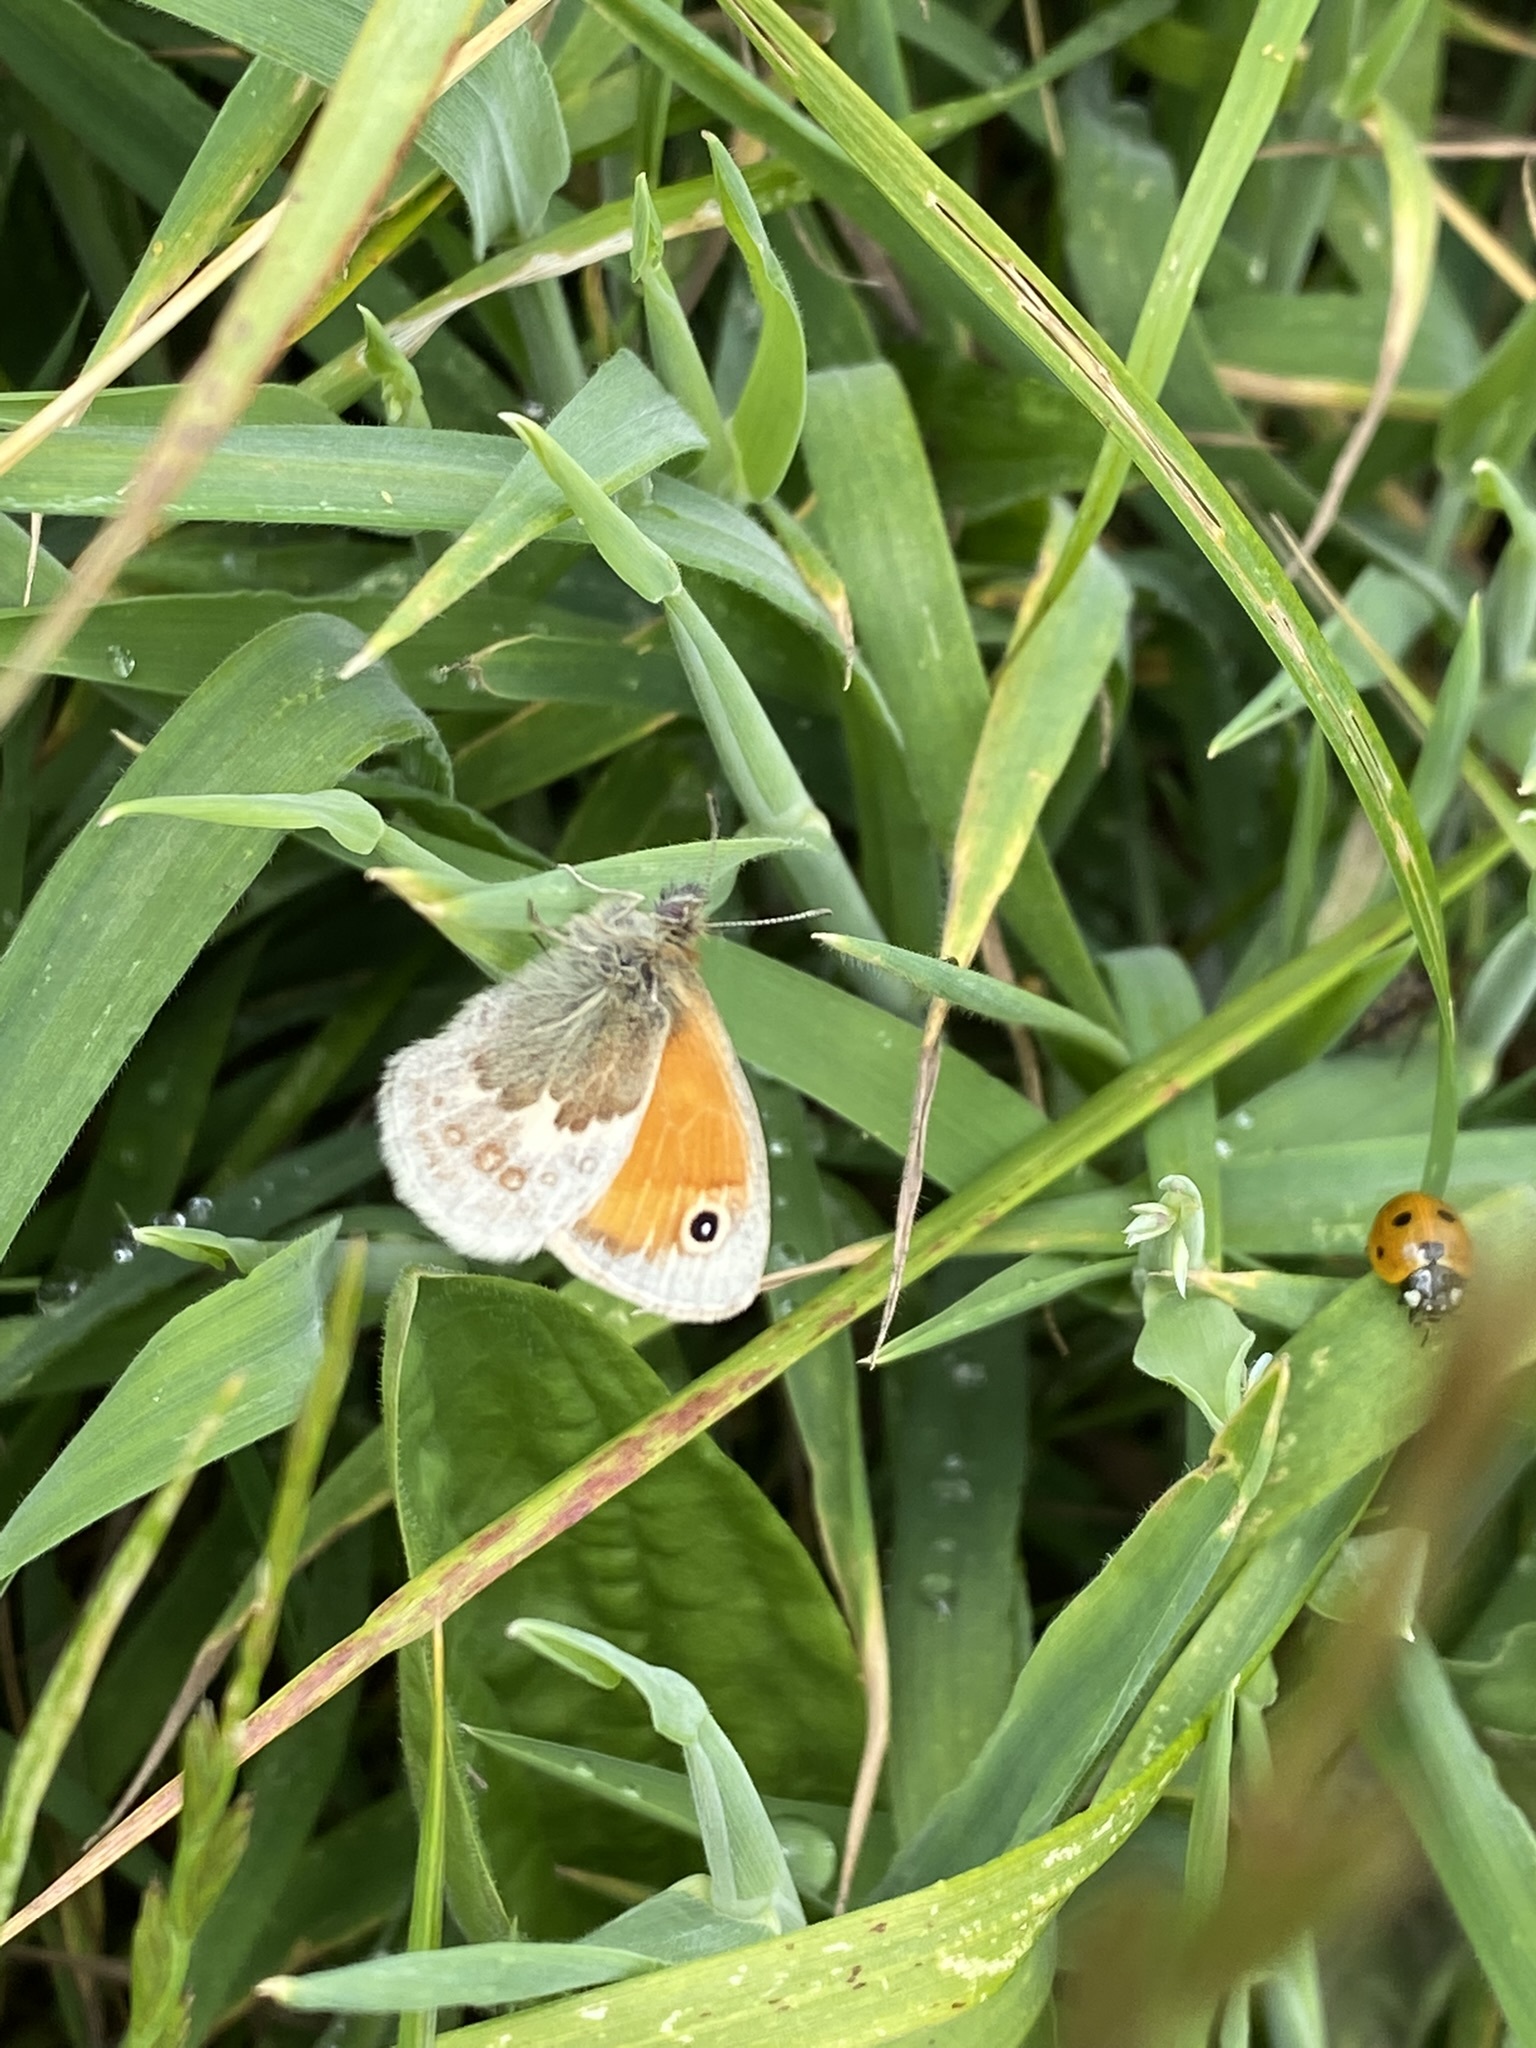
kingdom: Animalia
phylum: Arthropoda
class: Insecta
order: Lepidoptera
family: Nymphalidae
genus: Coenonympha
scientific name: Coenonympha pamphilus
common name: Small heath
